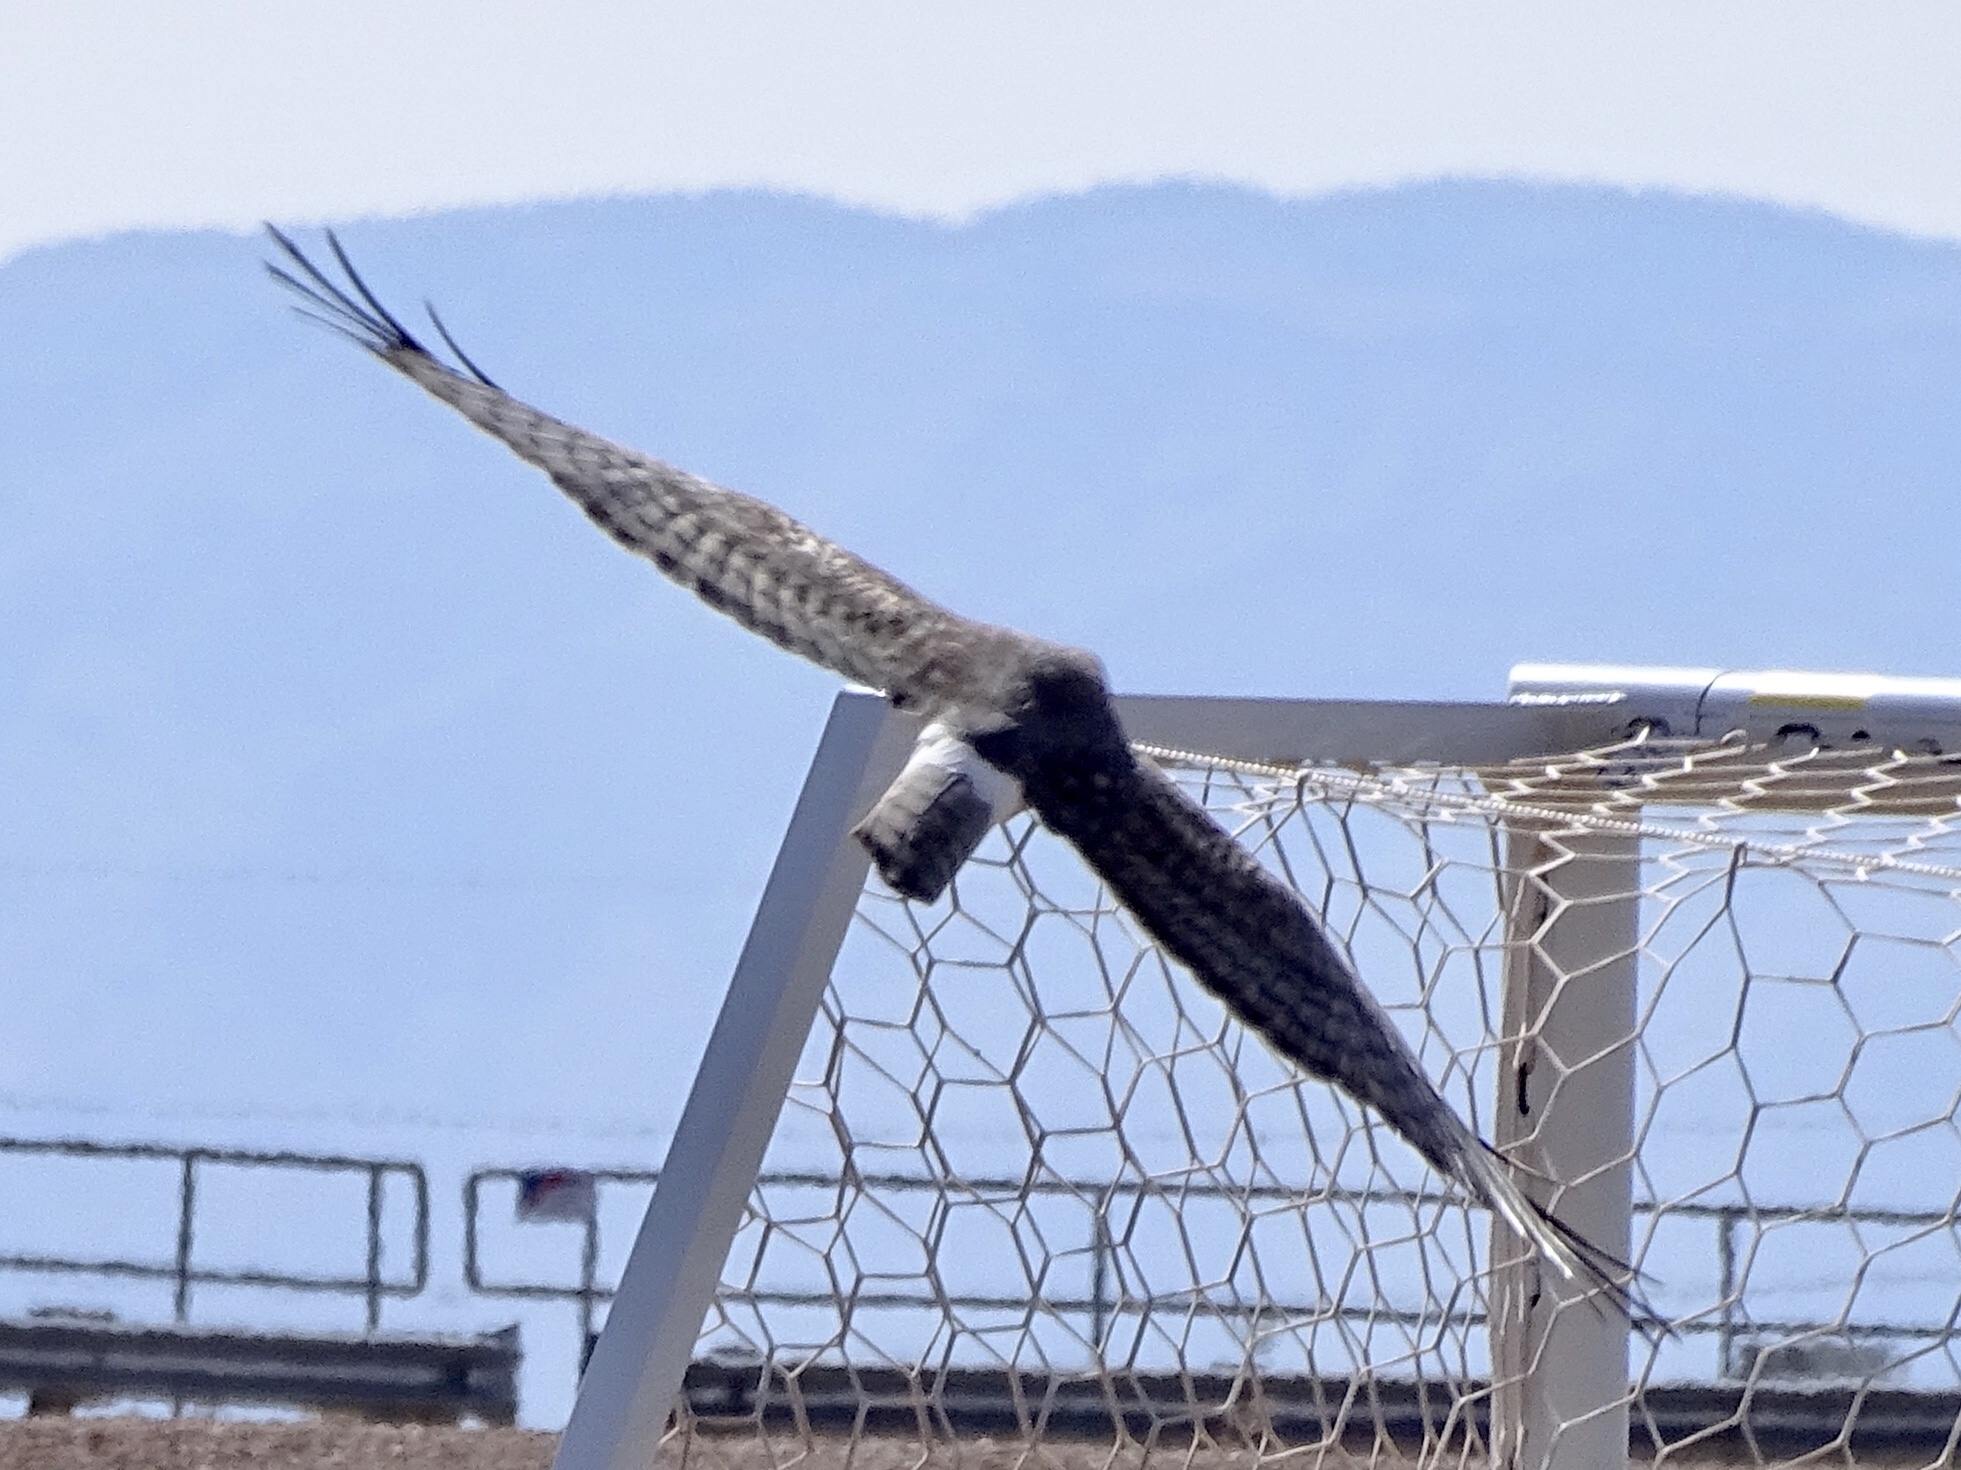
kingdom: Animalia
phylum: Chordata
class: Aves
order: Accipitriformes
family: Accipitridae
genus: Circus
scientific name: Circus cyaneus
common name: Hen harrier
